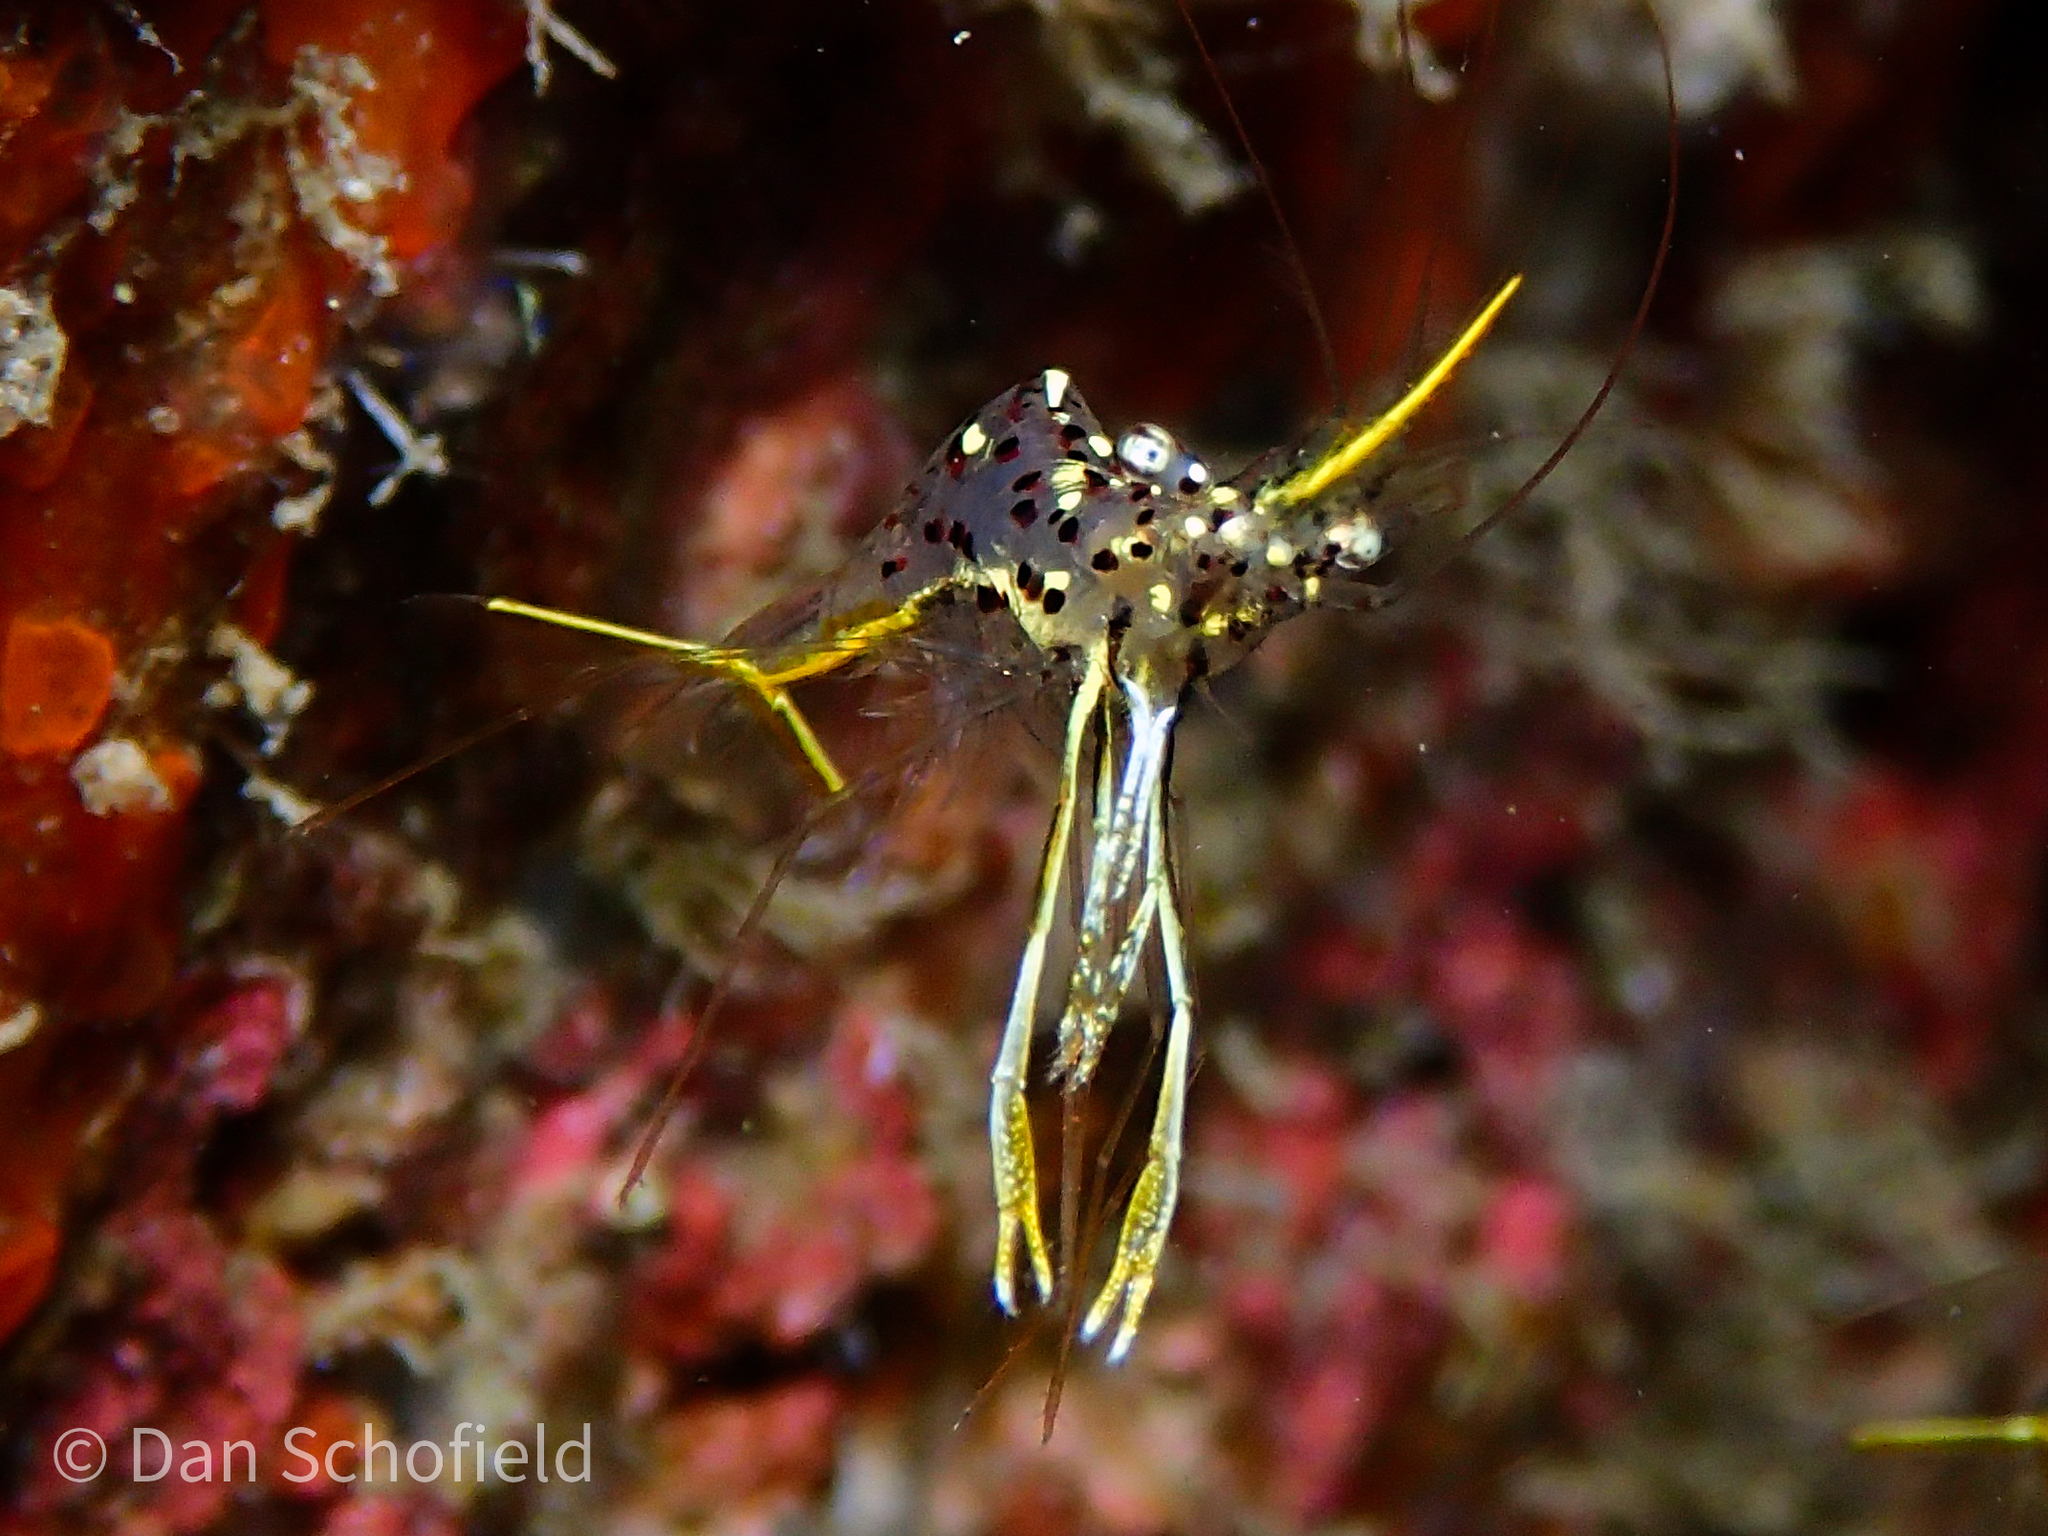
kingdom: Animalia
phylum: Arthropoda
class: Malacostraca
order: Decapoda
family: Palaemonidae
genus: Urocaridella
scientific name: Urocaridella degravei
